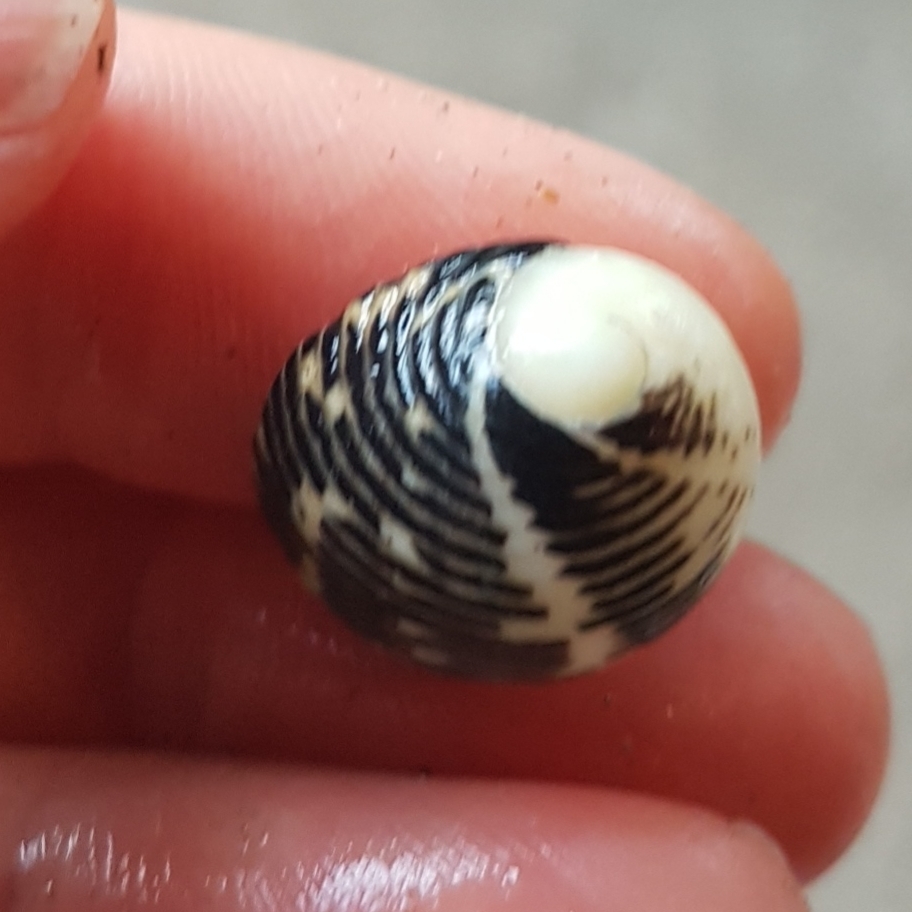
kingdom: Animalia
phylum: Mollusca
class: Gastropoda
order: Cycloneritida
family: Neritidae
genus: Nerita
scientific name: Nerita funiculata
